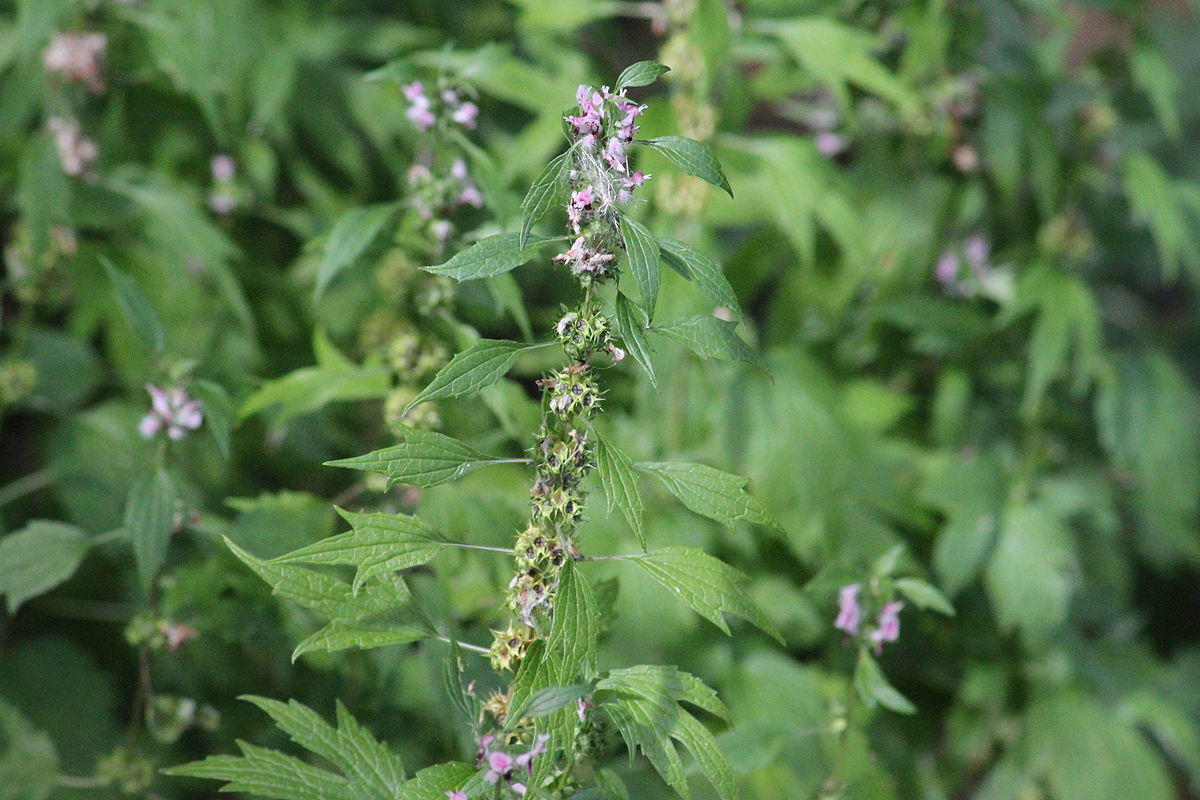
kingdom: Plantae
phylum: Tracheophyta
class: Magnoliopsida
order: Lamiales
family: Lamiaceae
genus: Leonurus
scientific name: Leonurus cardiaca
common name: Motherwort
